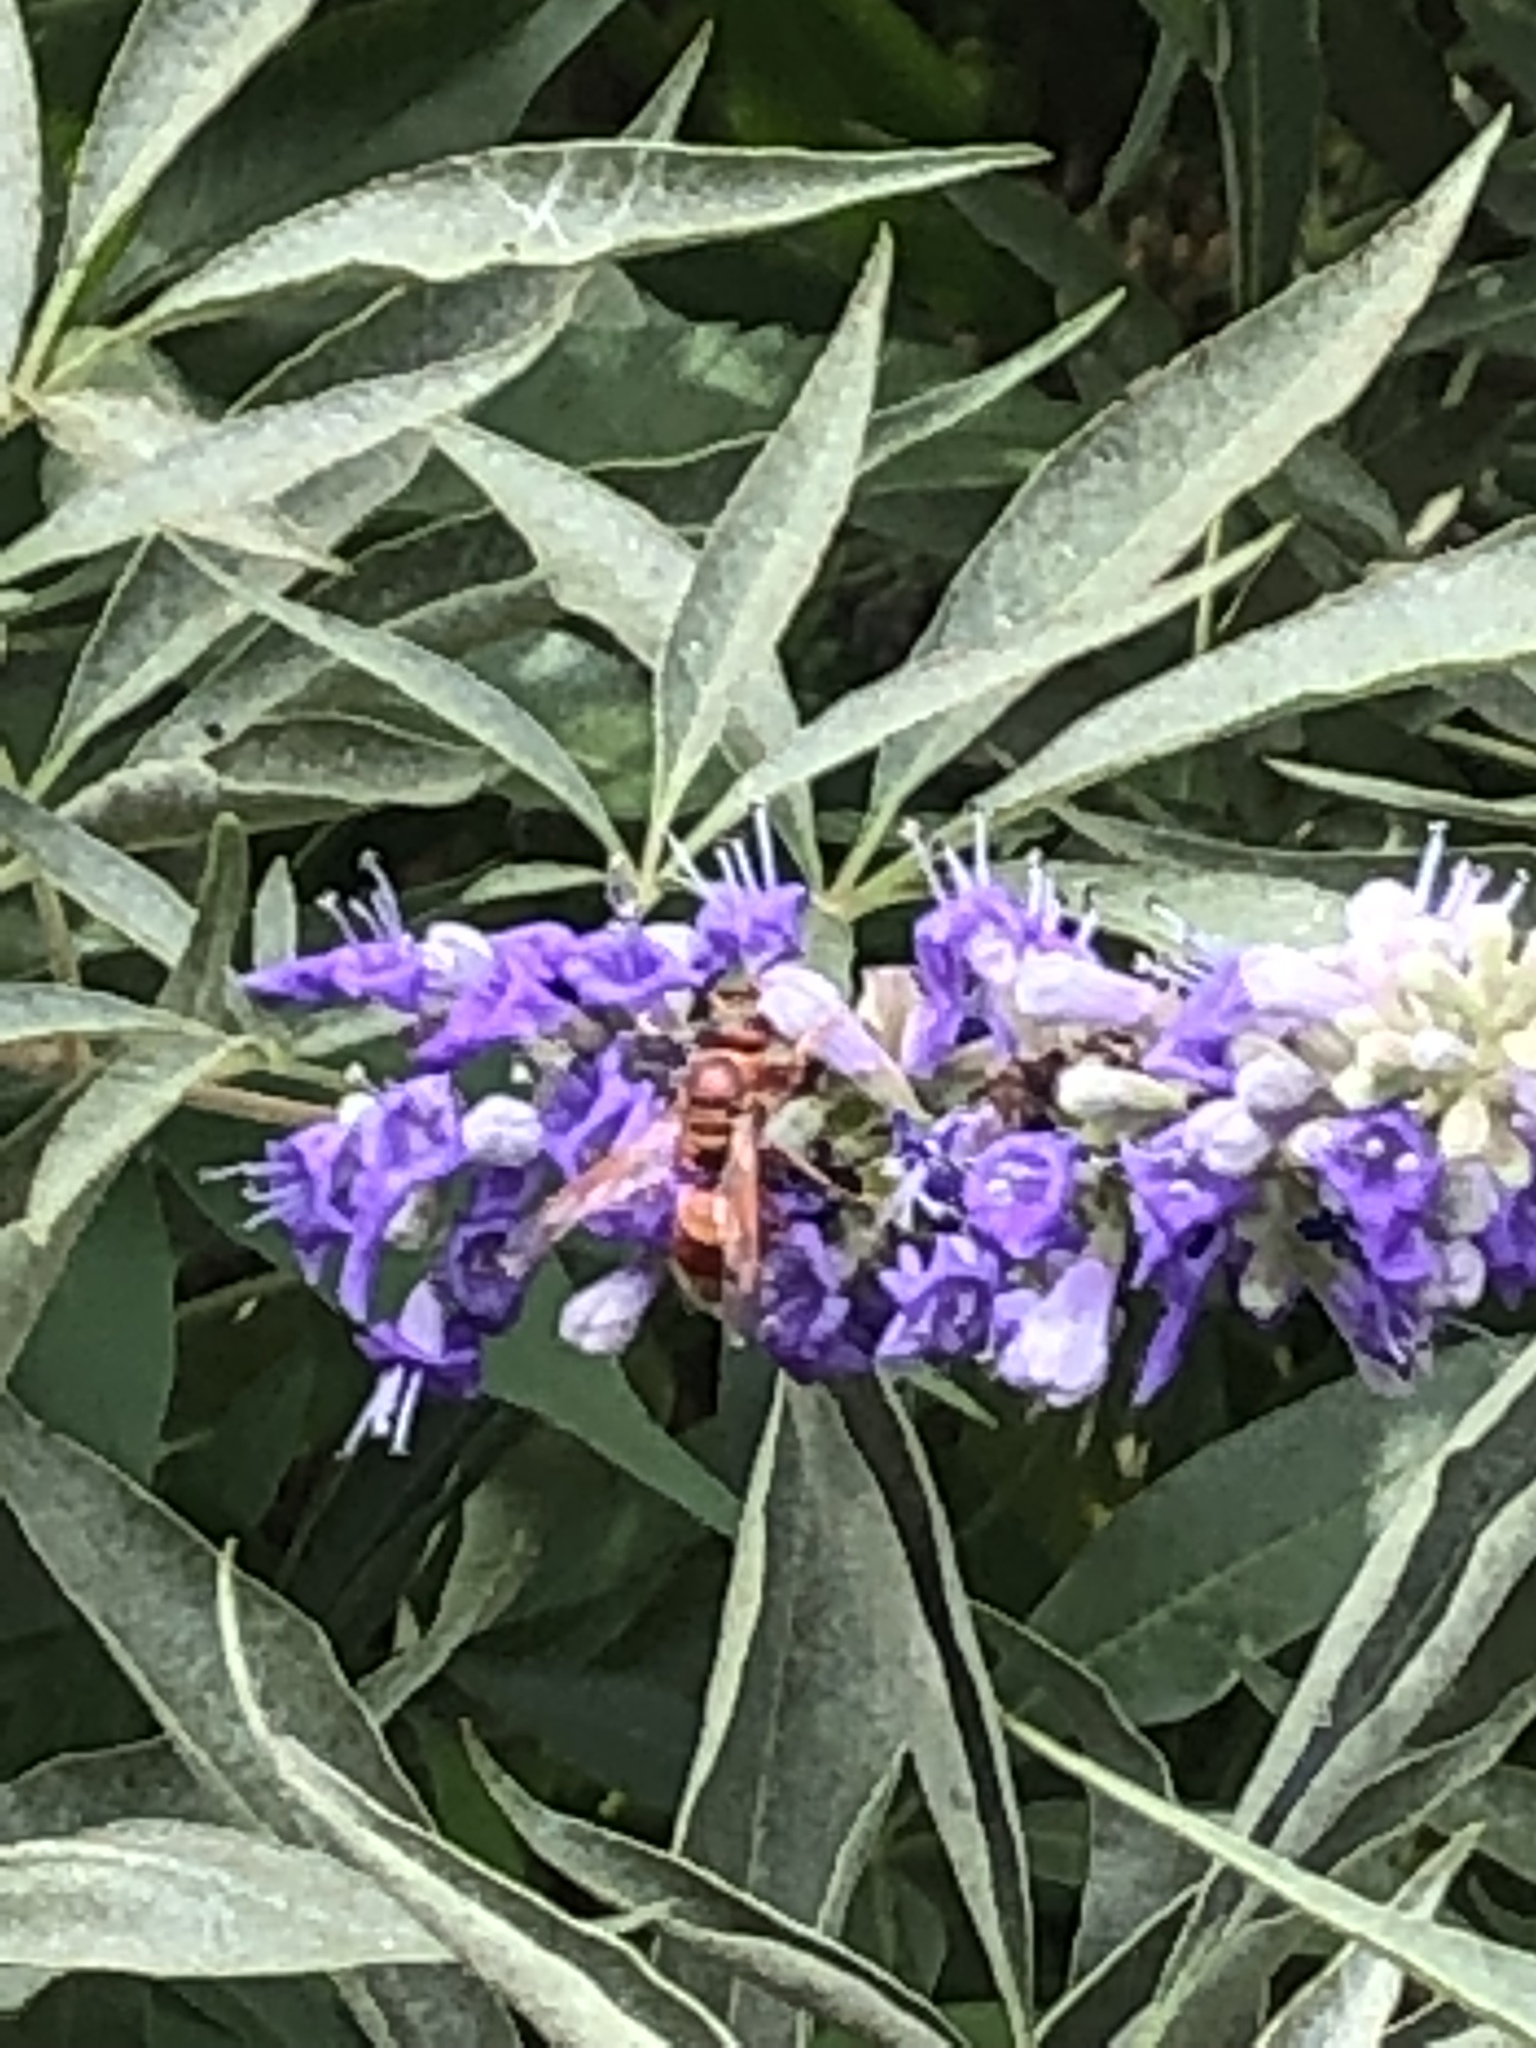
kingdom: Animalia
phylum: Arthropoda
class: Insecta
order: Hymenoptera
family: Eumenidae
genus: Euodynerus
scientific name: Euodynerus
